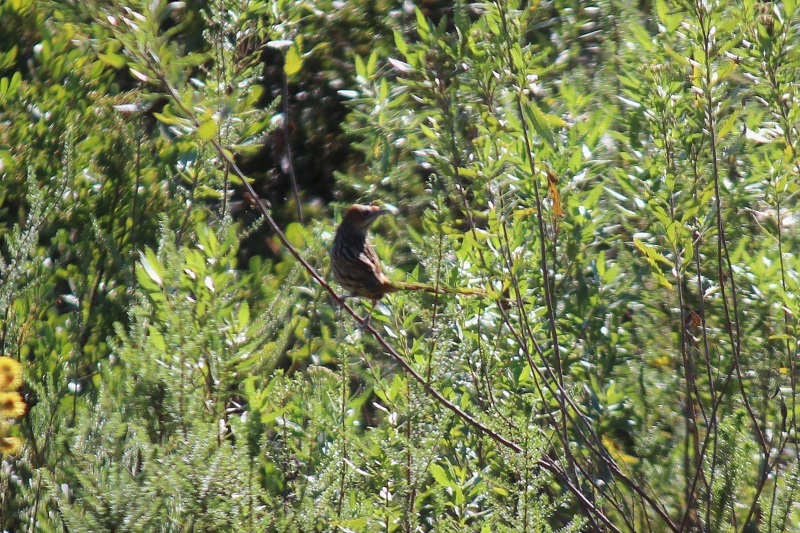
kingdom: Animalia
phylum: Chordata
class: Aves
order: Passeriformes
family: Macrosphenidae
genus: Sphenoeacus
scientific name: Sphenoeacus afer
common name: Cape grassbird
